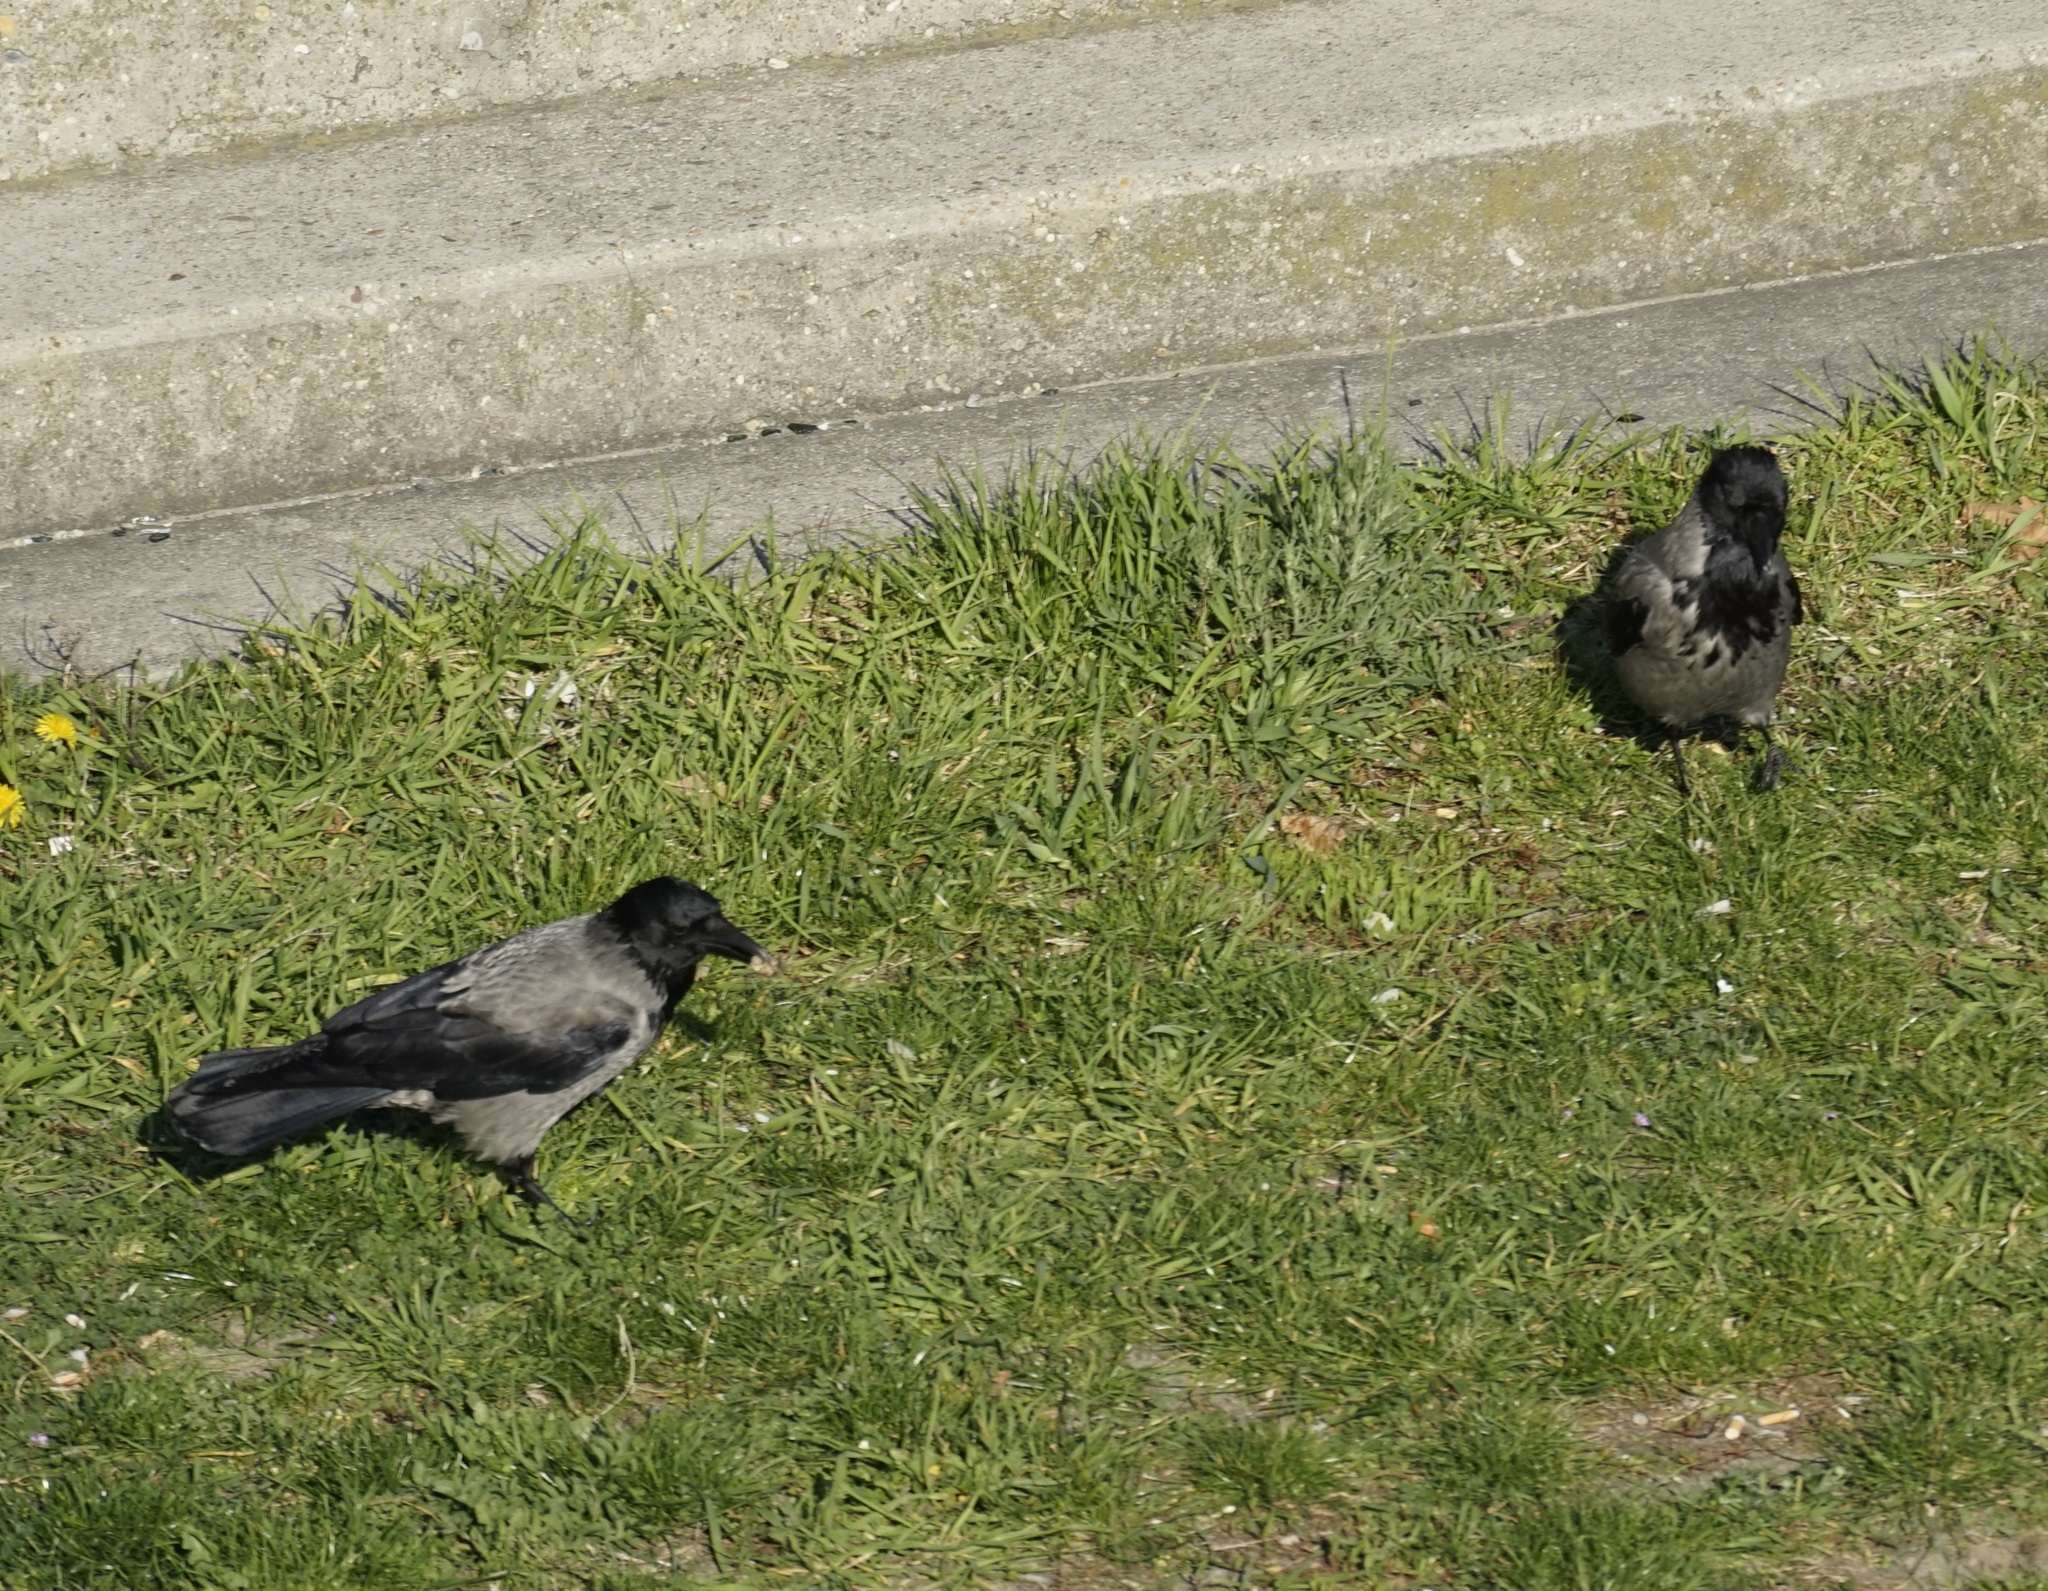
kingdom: Animalia
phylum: Chordata
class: Aves
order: Passeriformes
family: Corvidae
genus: Corvus
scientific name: Corvus cornix
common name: Hooded crow
